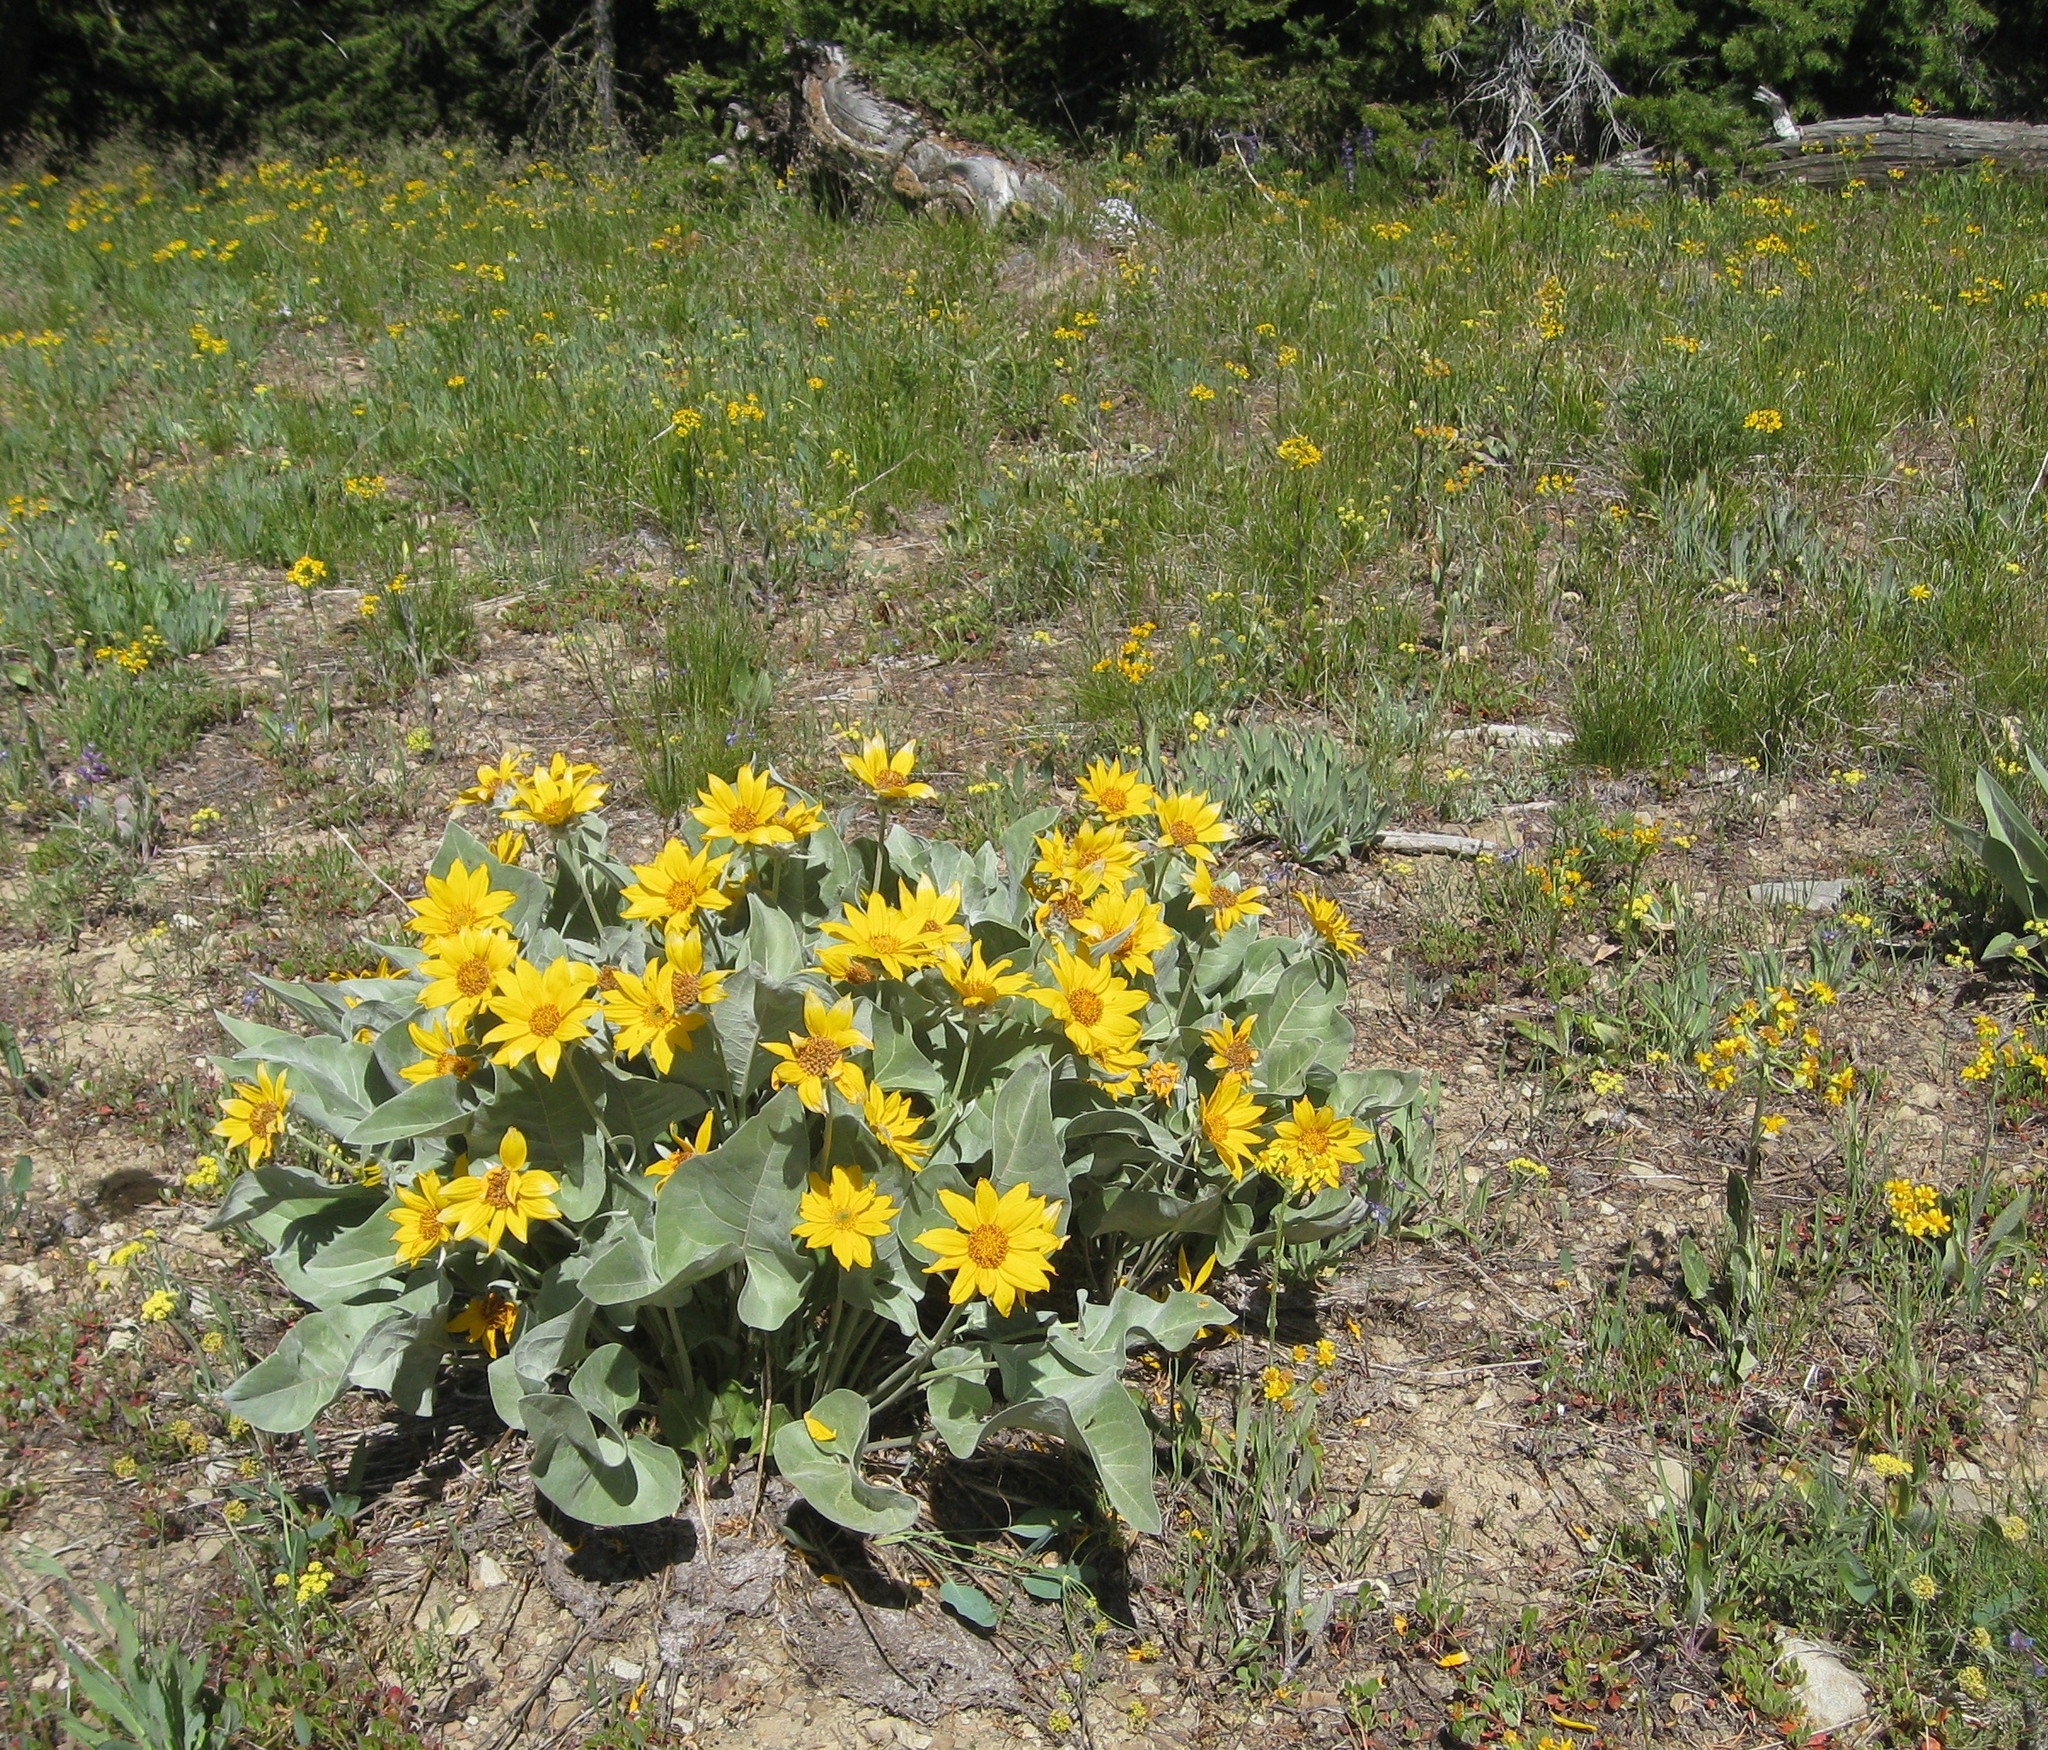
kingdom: Plantae
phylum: Tracheophyta
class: Magnoliopsida
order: Asterales
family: Asteraceae
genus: Wyethia
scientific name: Wyethia sagittata
